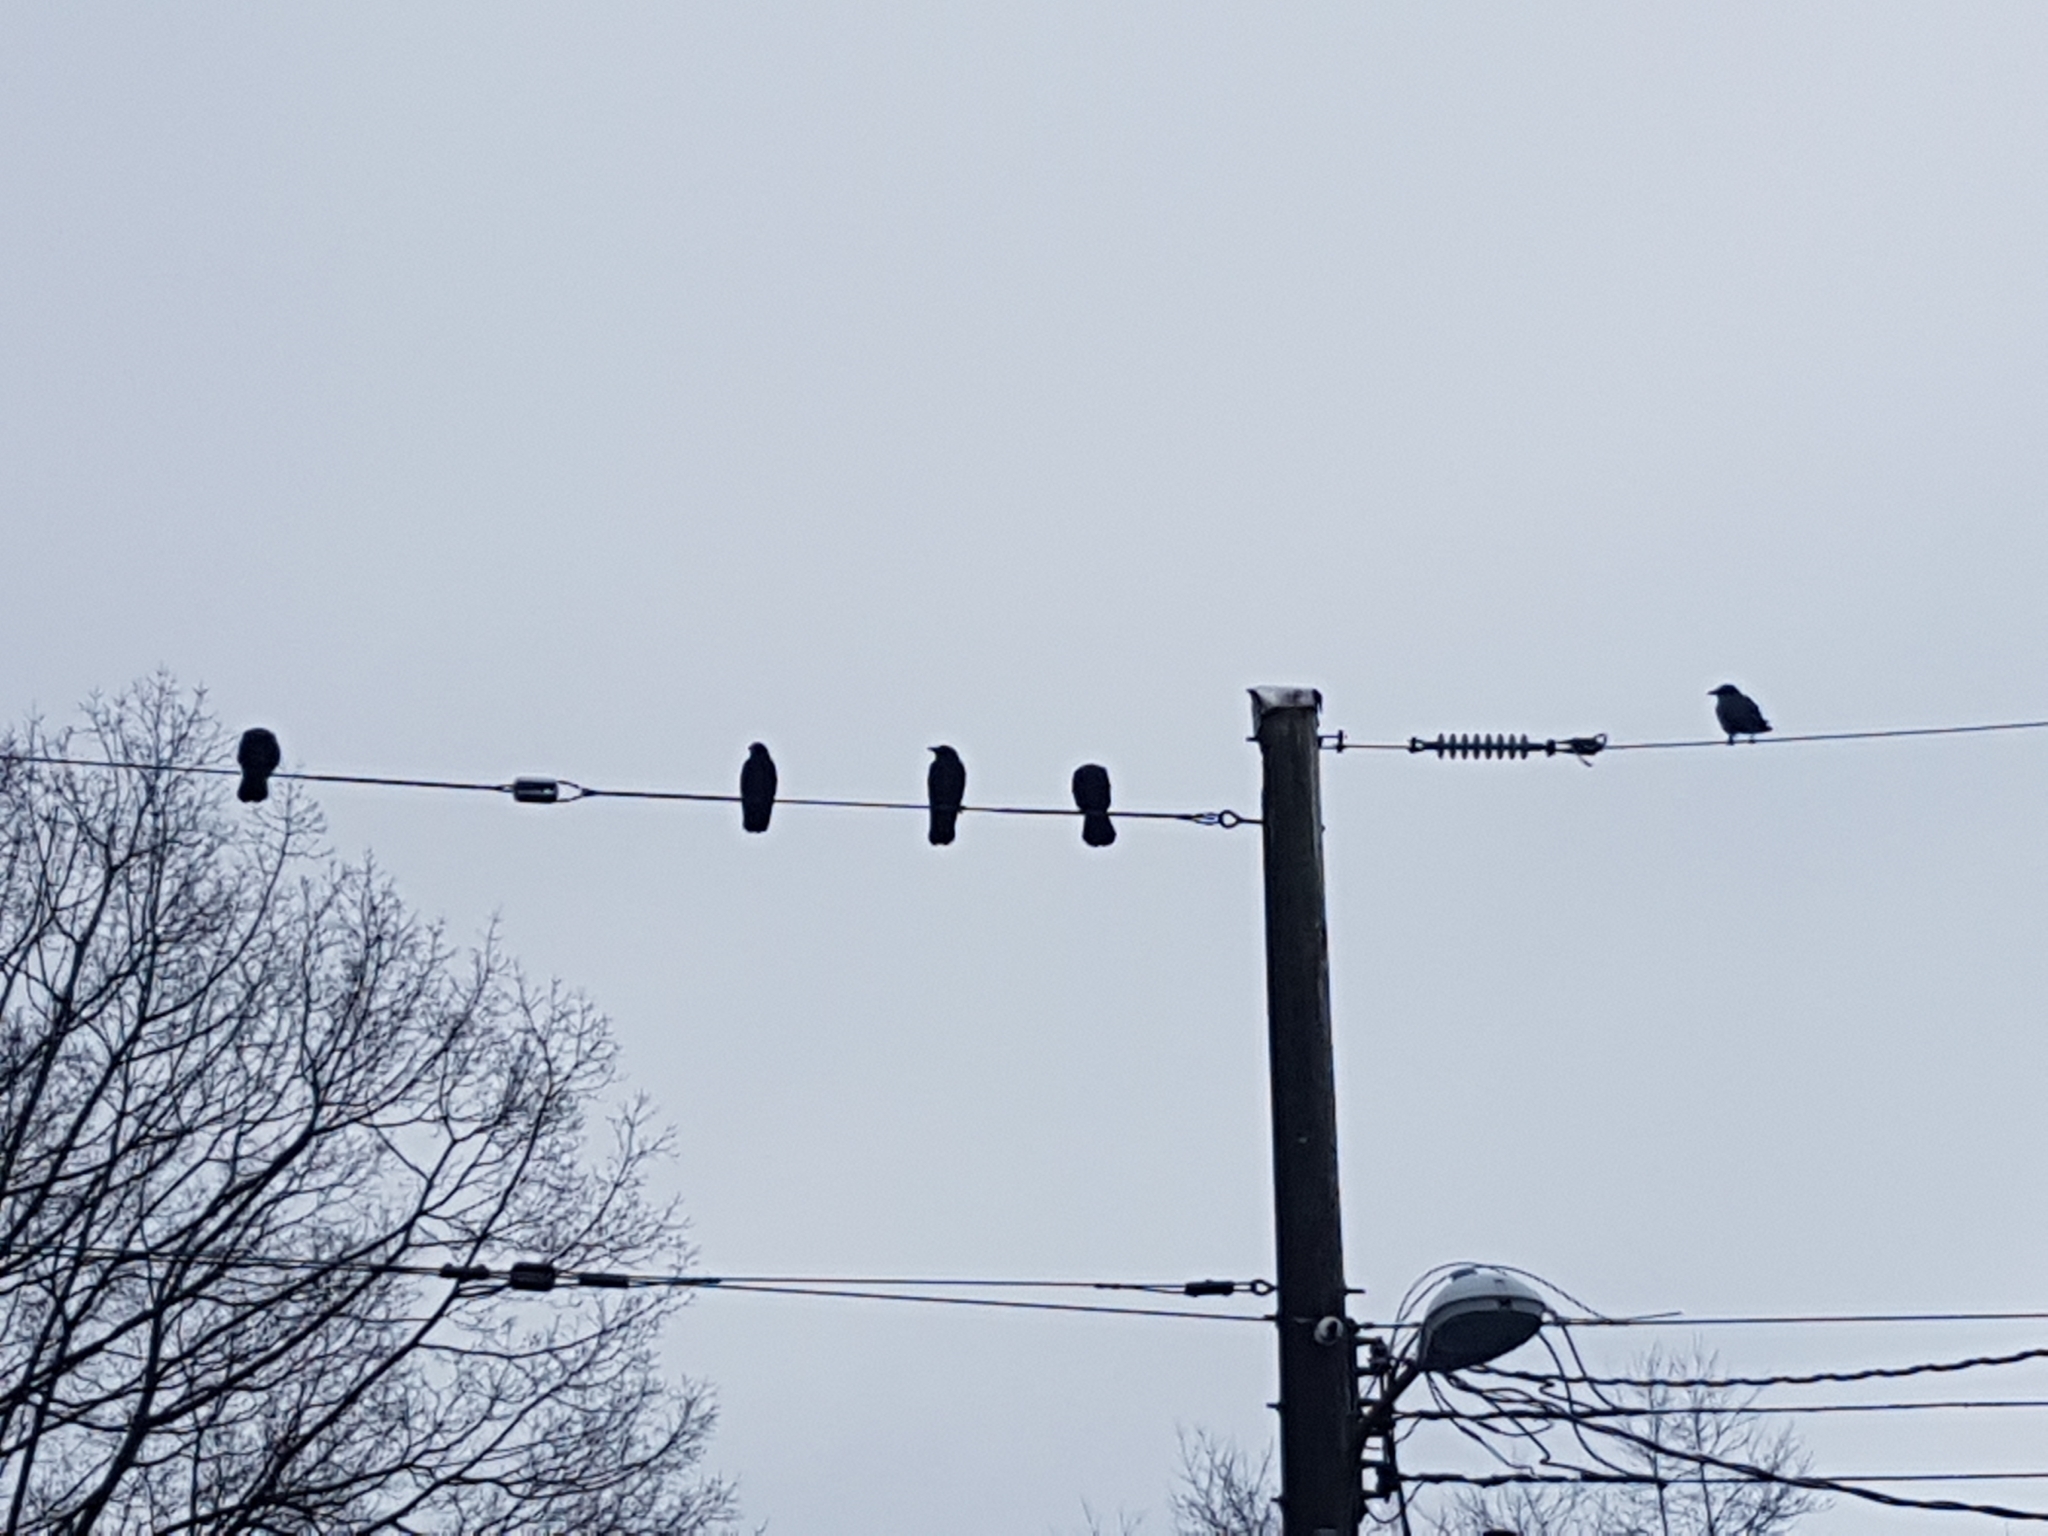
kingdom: Animalia
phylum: Chordata
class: Aves
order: Passeriformes
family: Corvidae
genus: Corvus
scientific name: Corvus brachyrhynchos
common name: American crow
